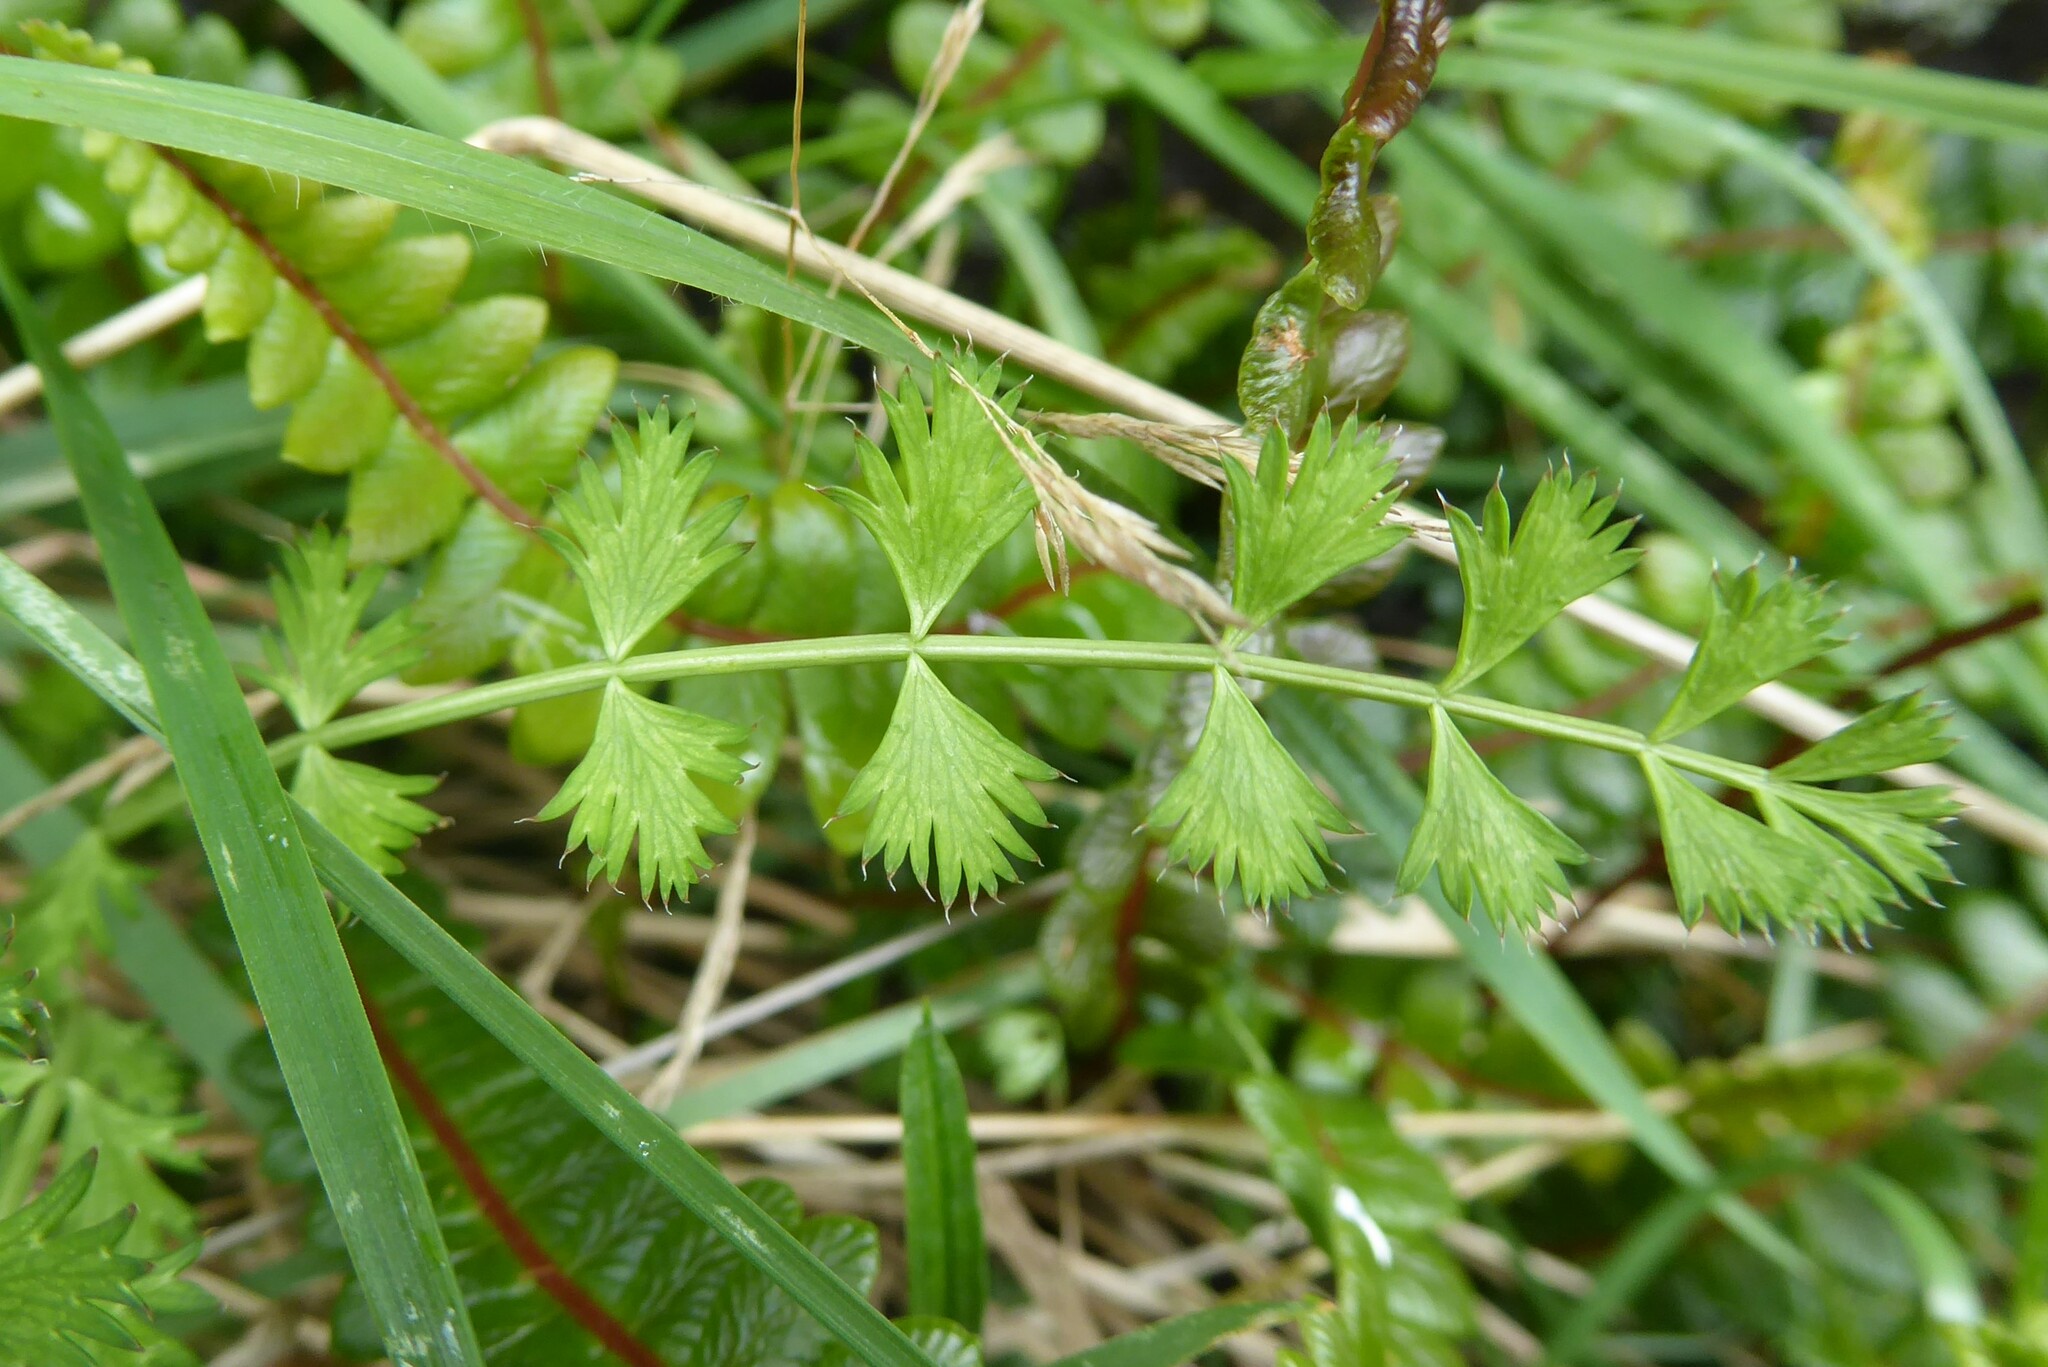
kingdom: Plantae
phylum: Tracheophyta
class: Magnoliopsida
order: Apiales
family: Apiaceae
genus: Anisotome
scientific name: Anisotome aromatica
